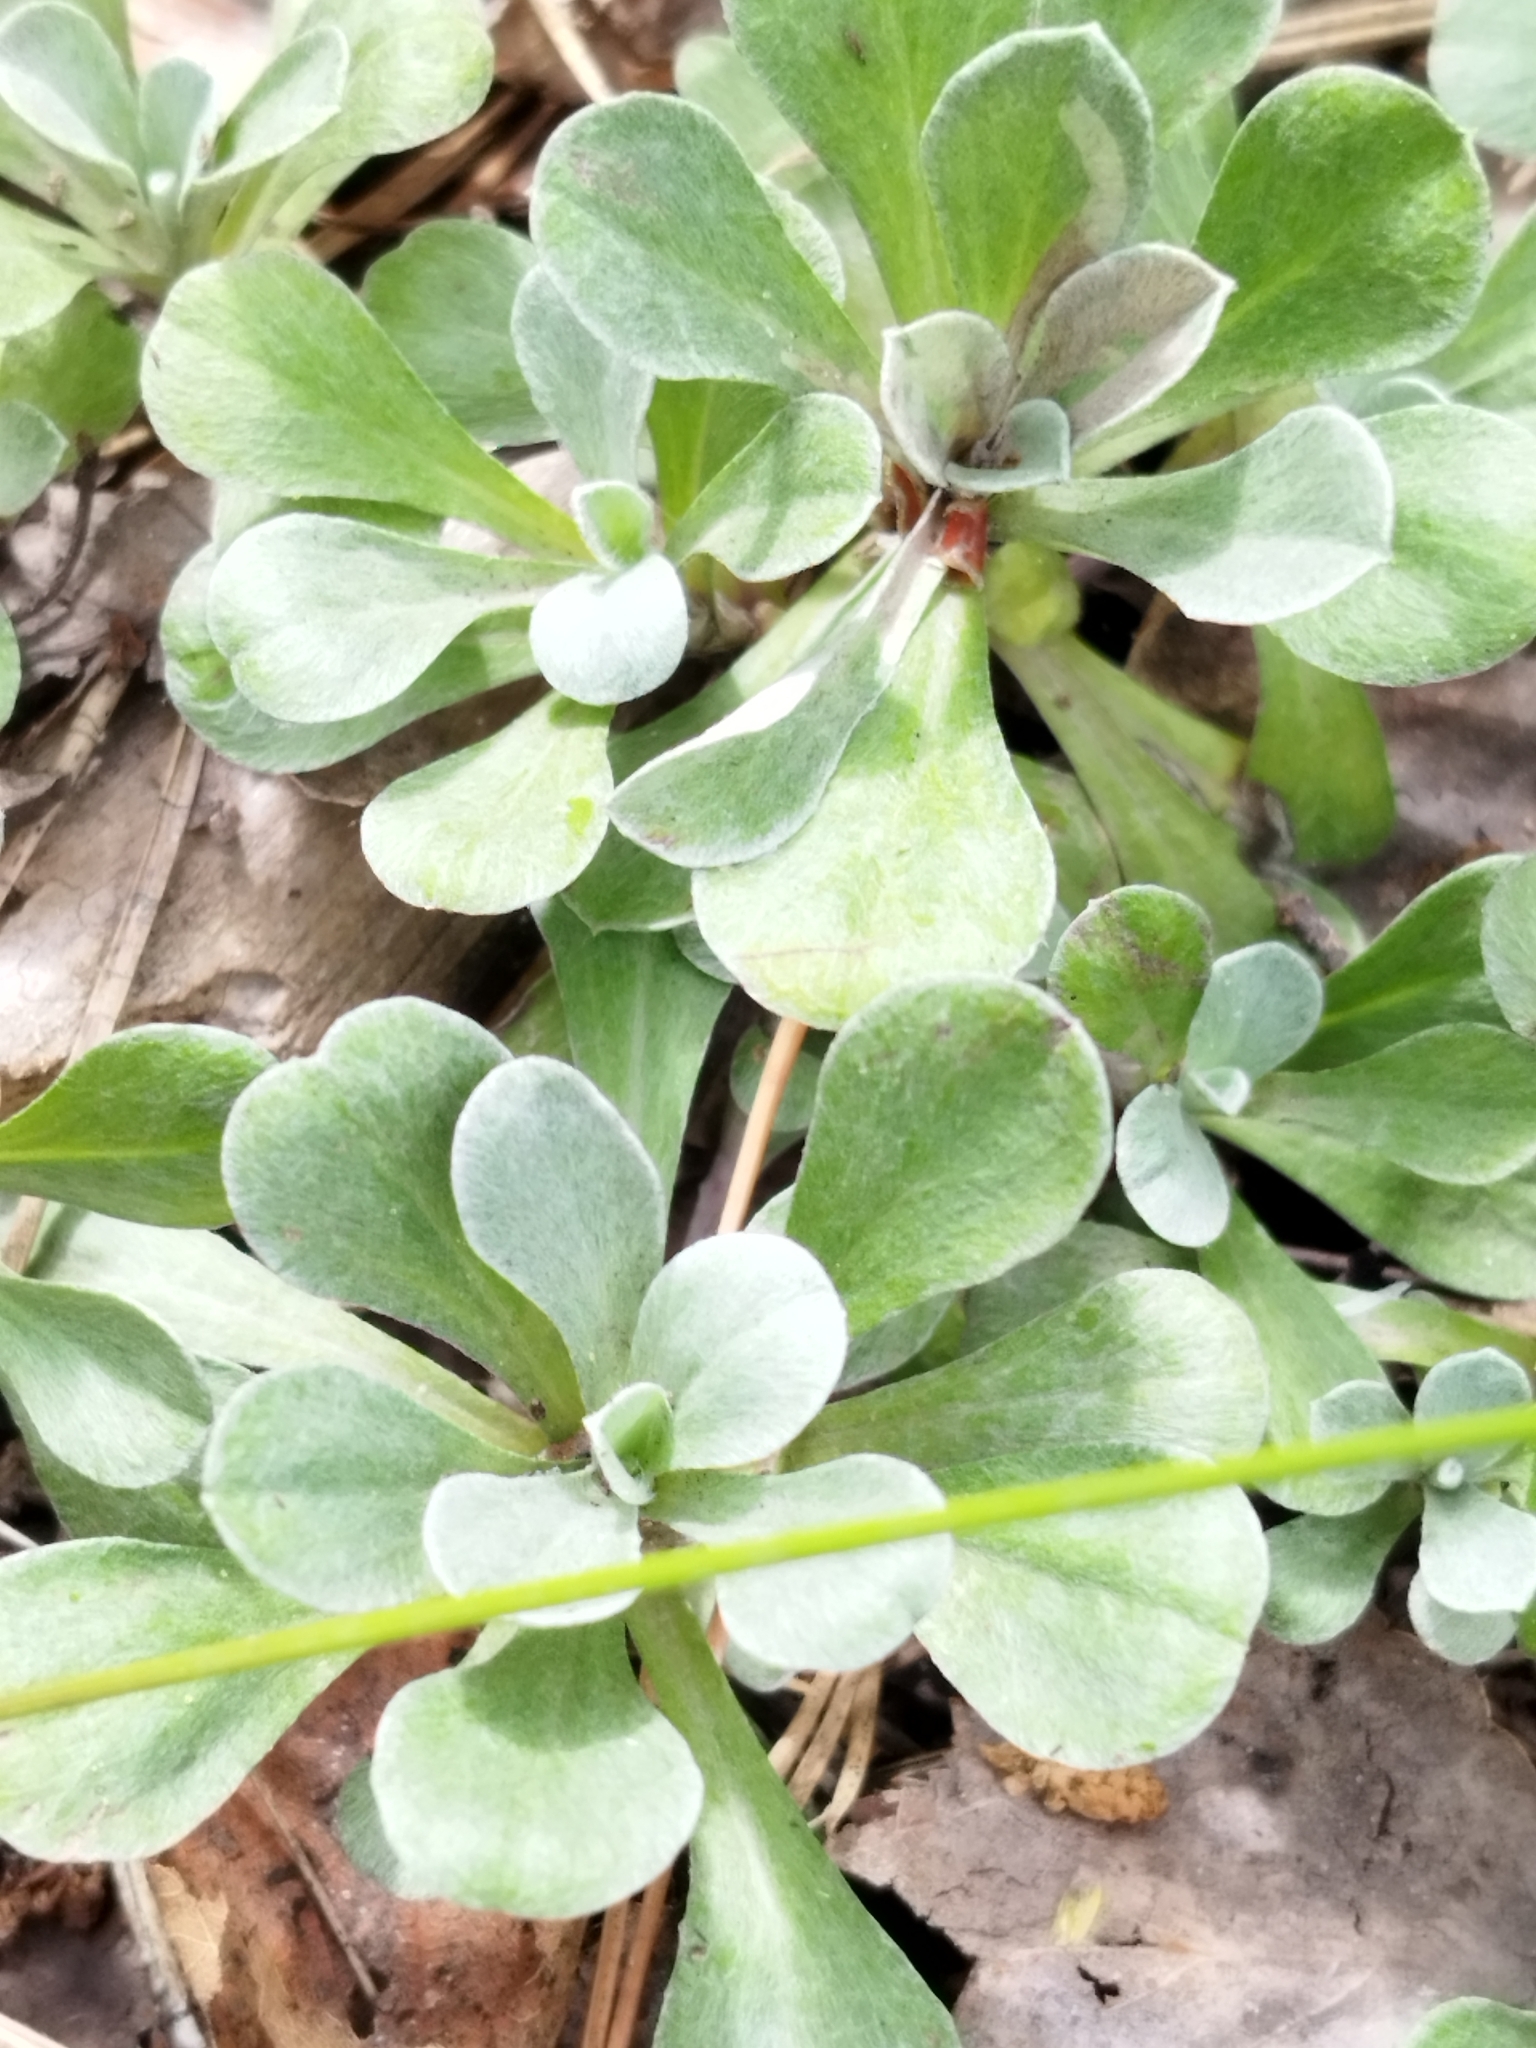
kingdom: Plantae
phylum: Tracheophyta
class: Magnoliopsida
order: Asterales
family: Asteraceae
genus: Antennaria
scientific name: Antennaria dioica
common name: Mountain everlasting
